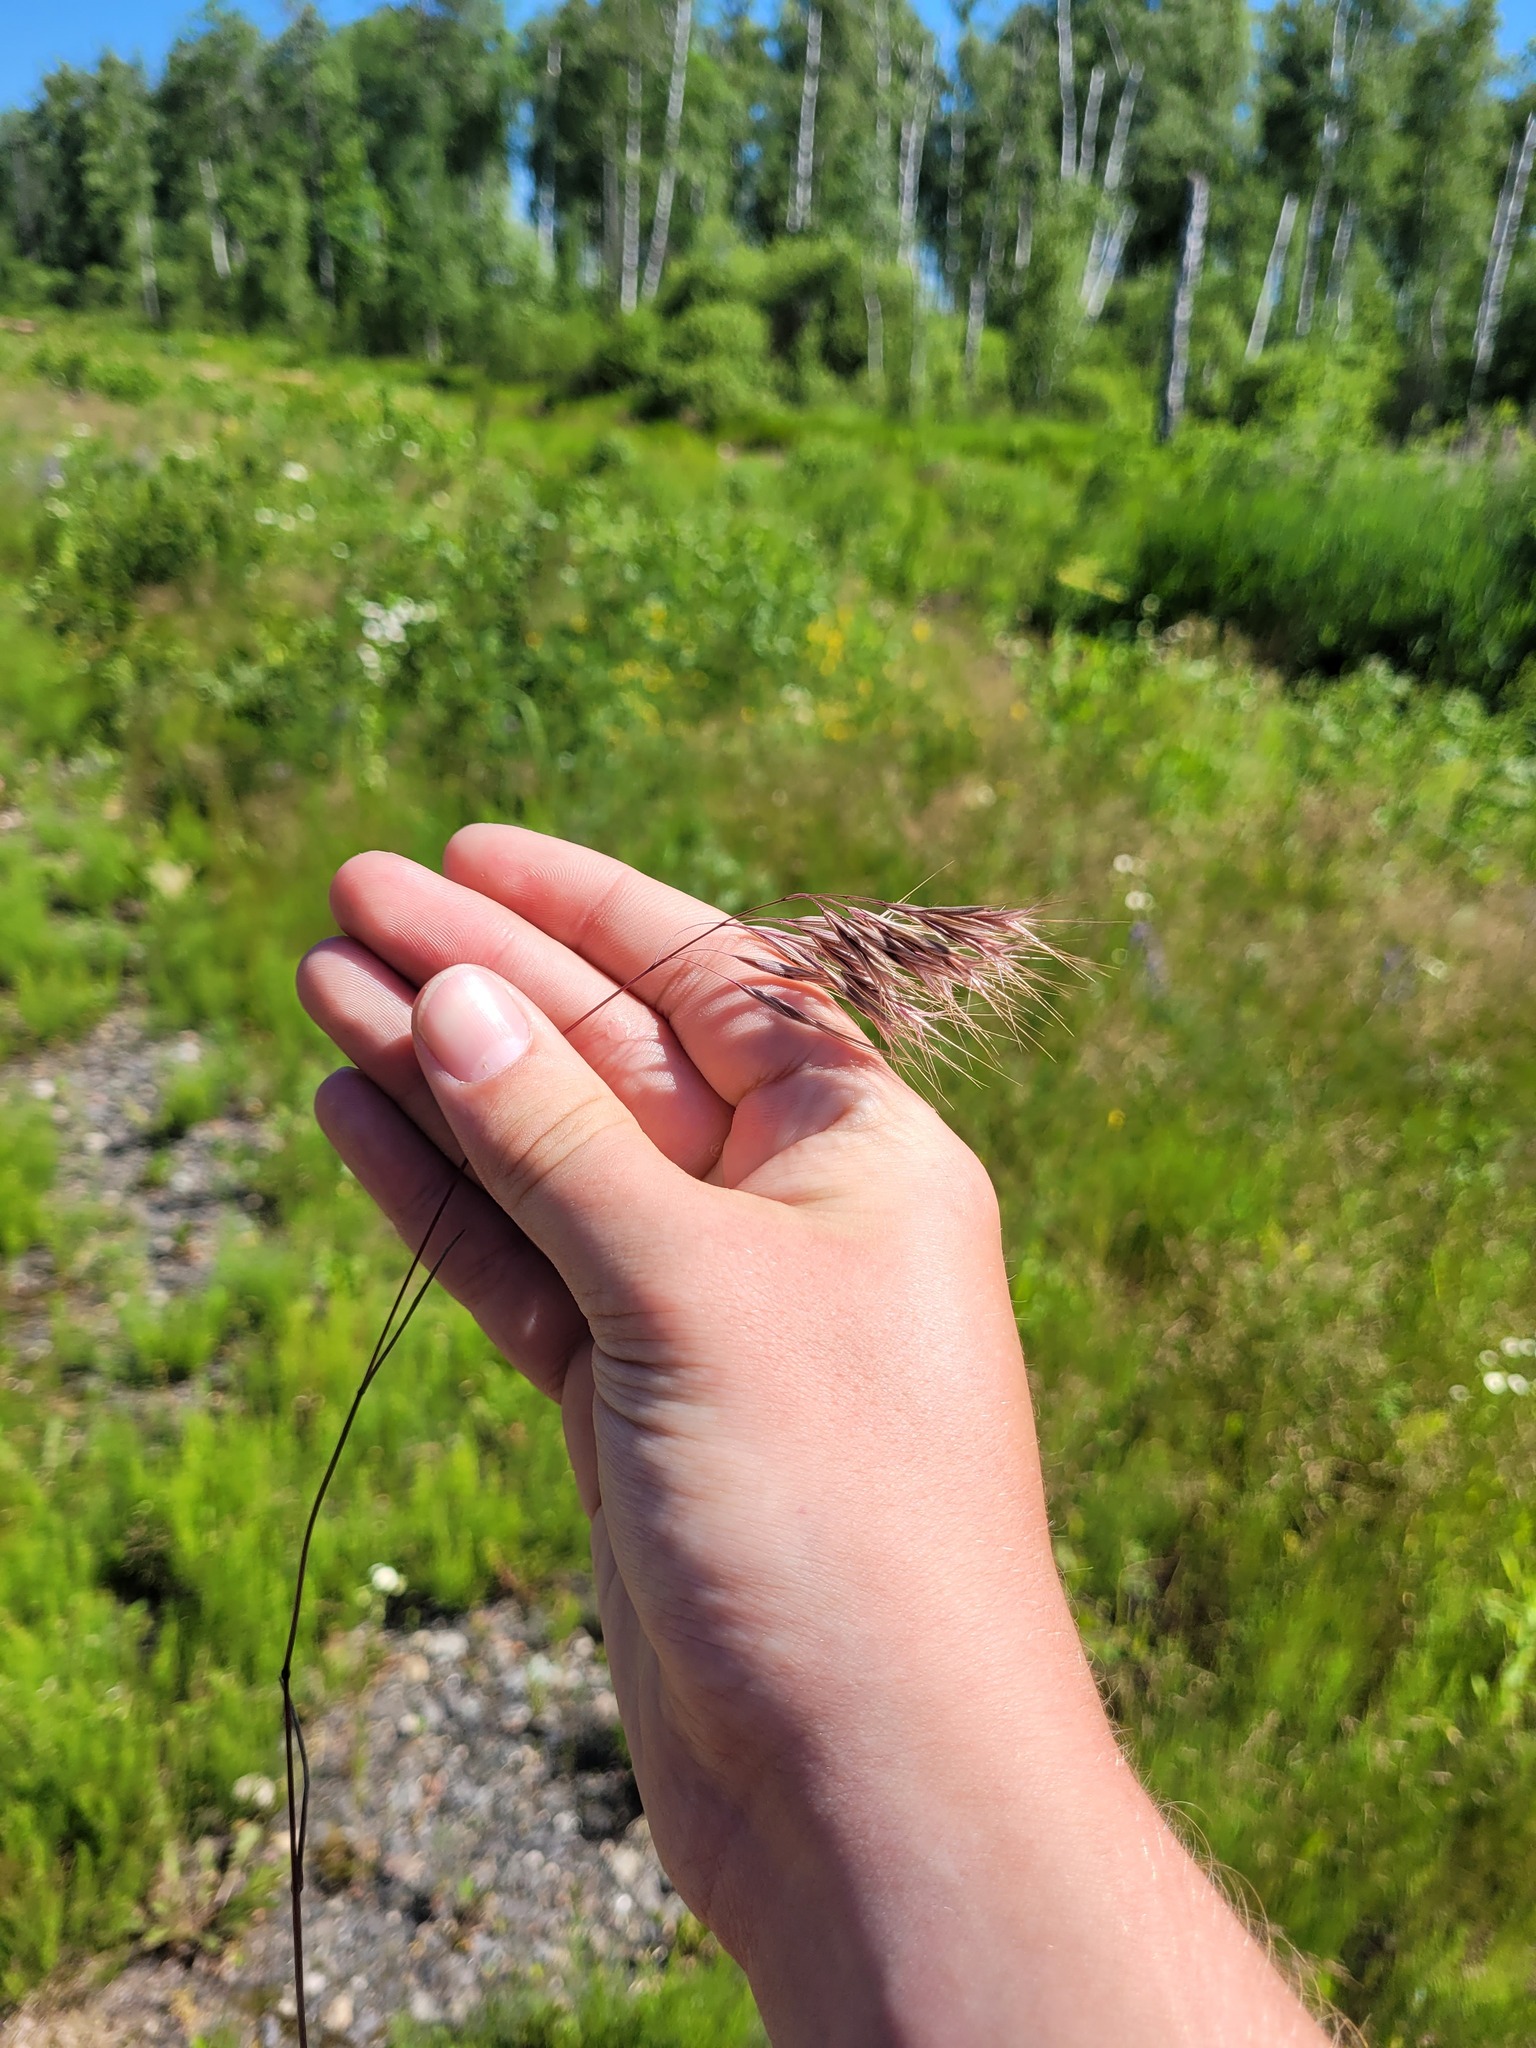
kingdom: Plantae
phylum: Tracheophyta
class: Liliopsida
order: Poales
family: Poaceae
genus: Bromus
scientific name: Bromus tectorum
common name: Cheatgrass
